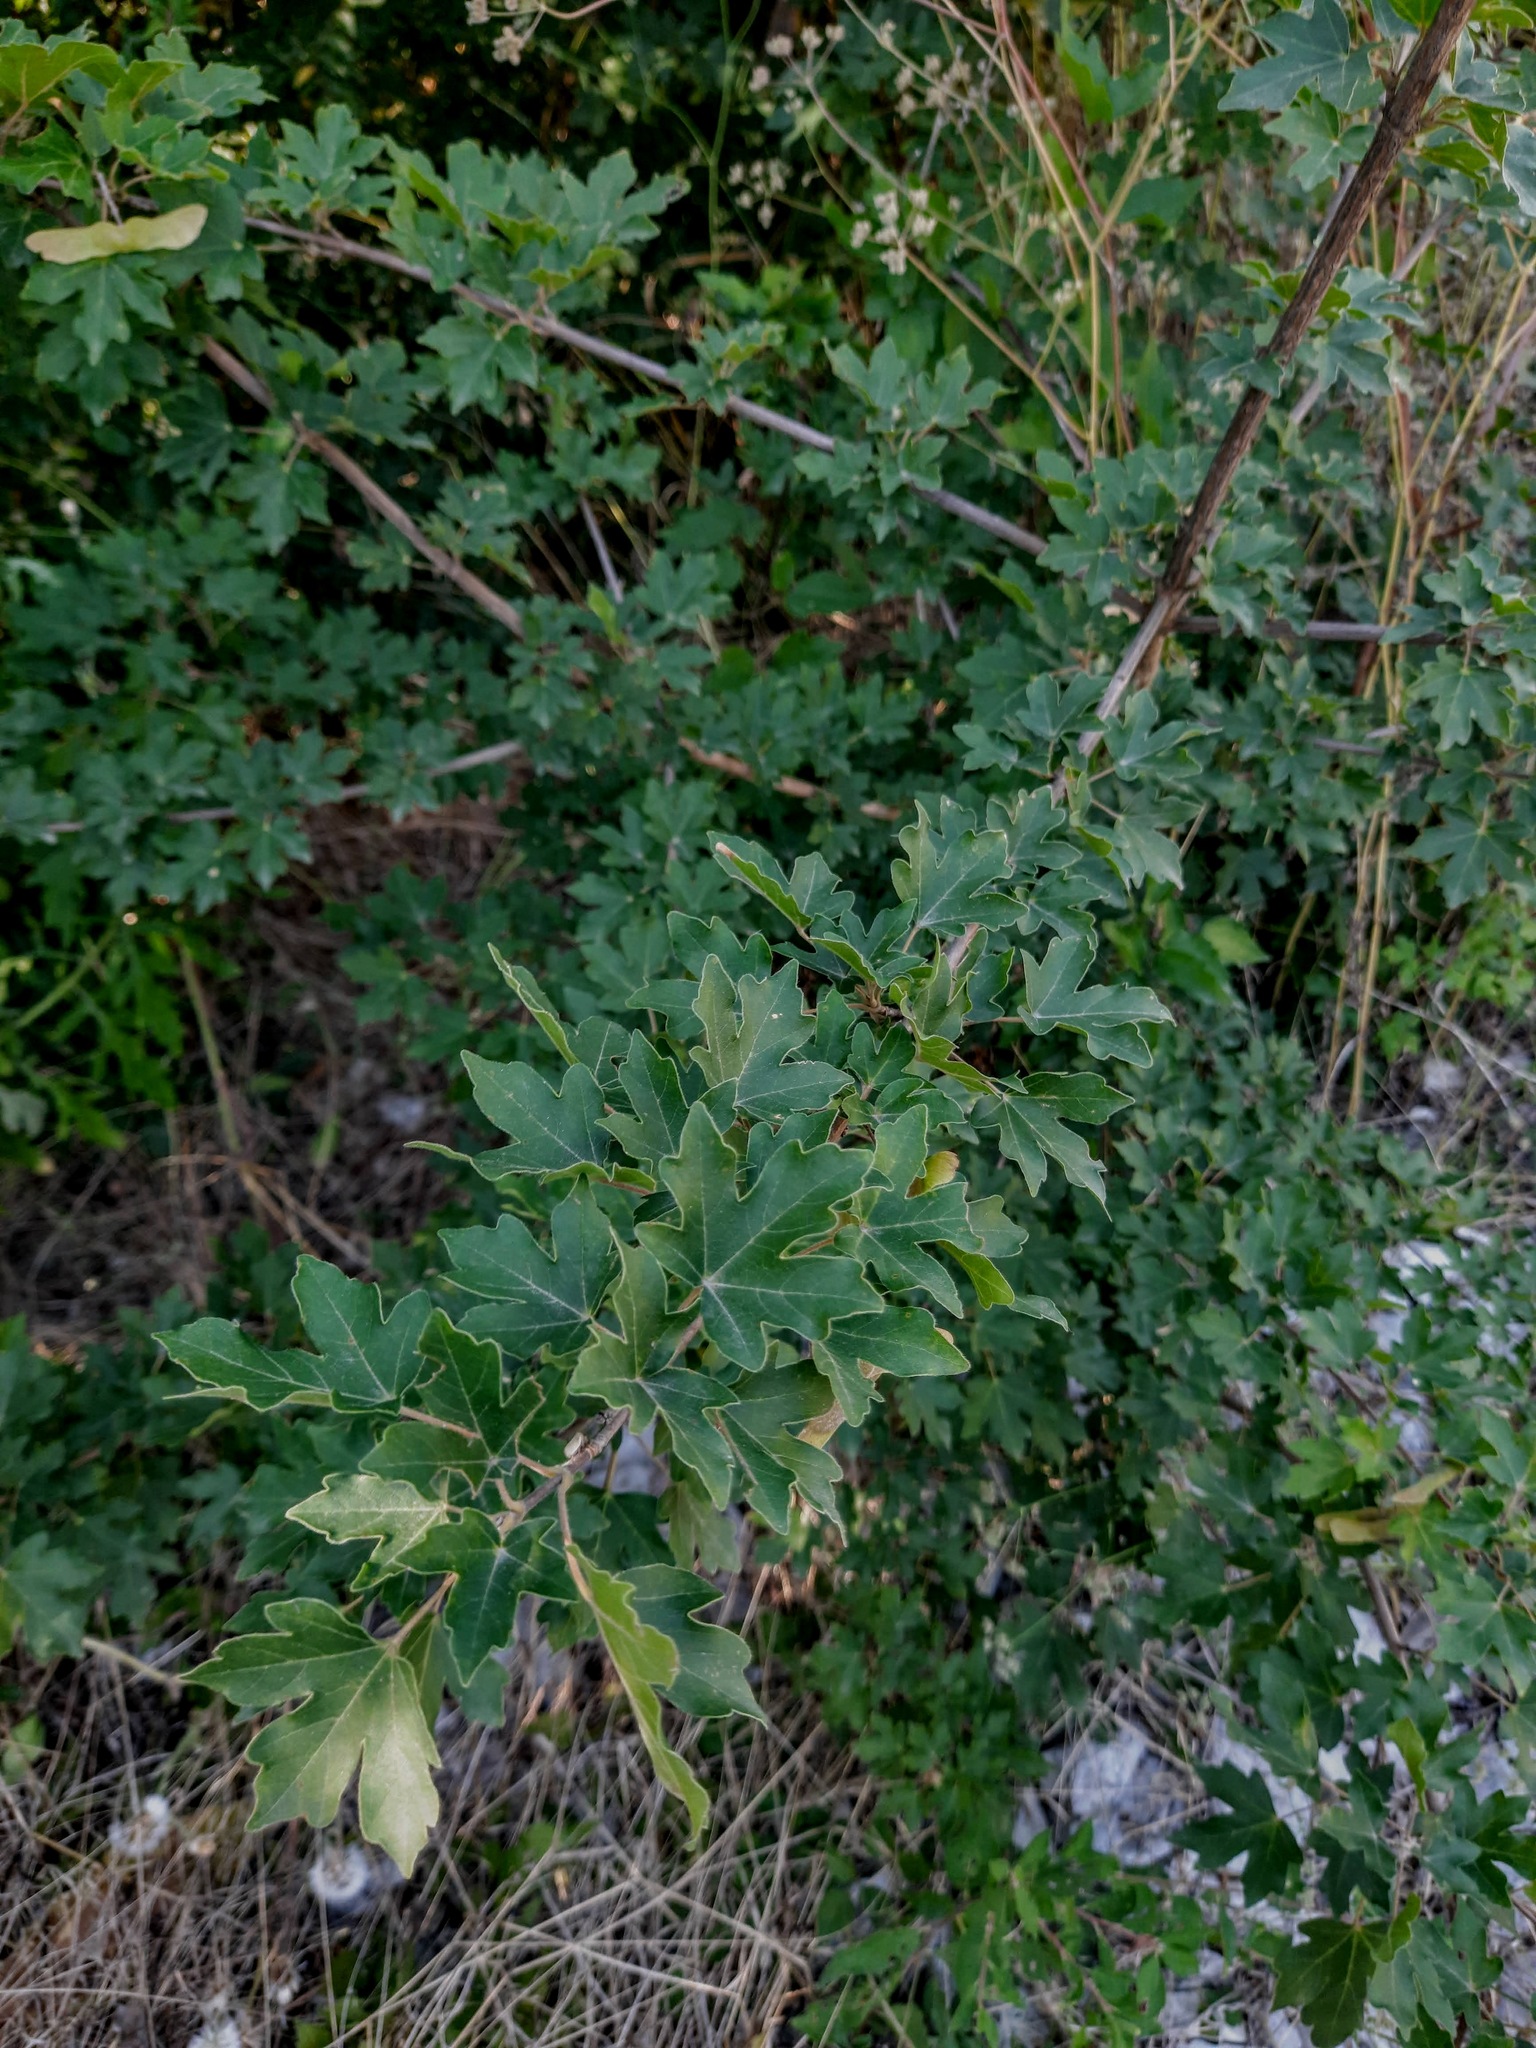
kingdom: Plantae
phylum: Tracheophyta
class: Magnoliopsida
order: Sapindales
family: Sapindaceae
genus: Acer
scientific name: Acer campestre
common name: Field maple
